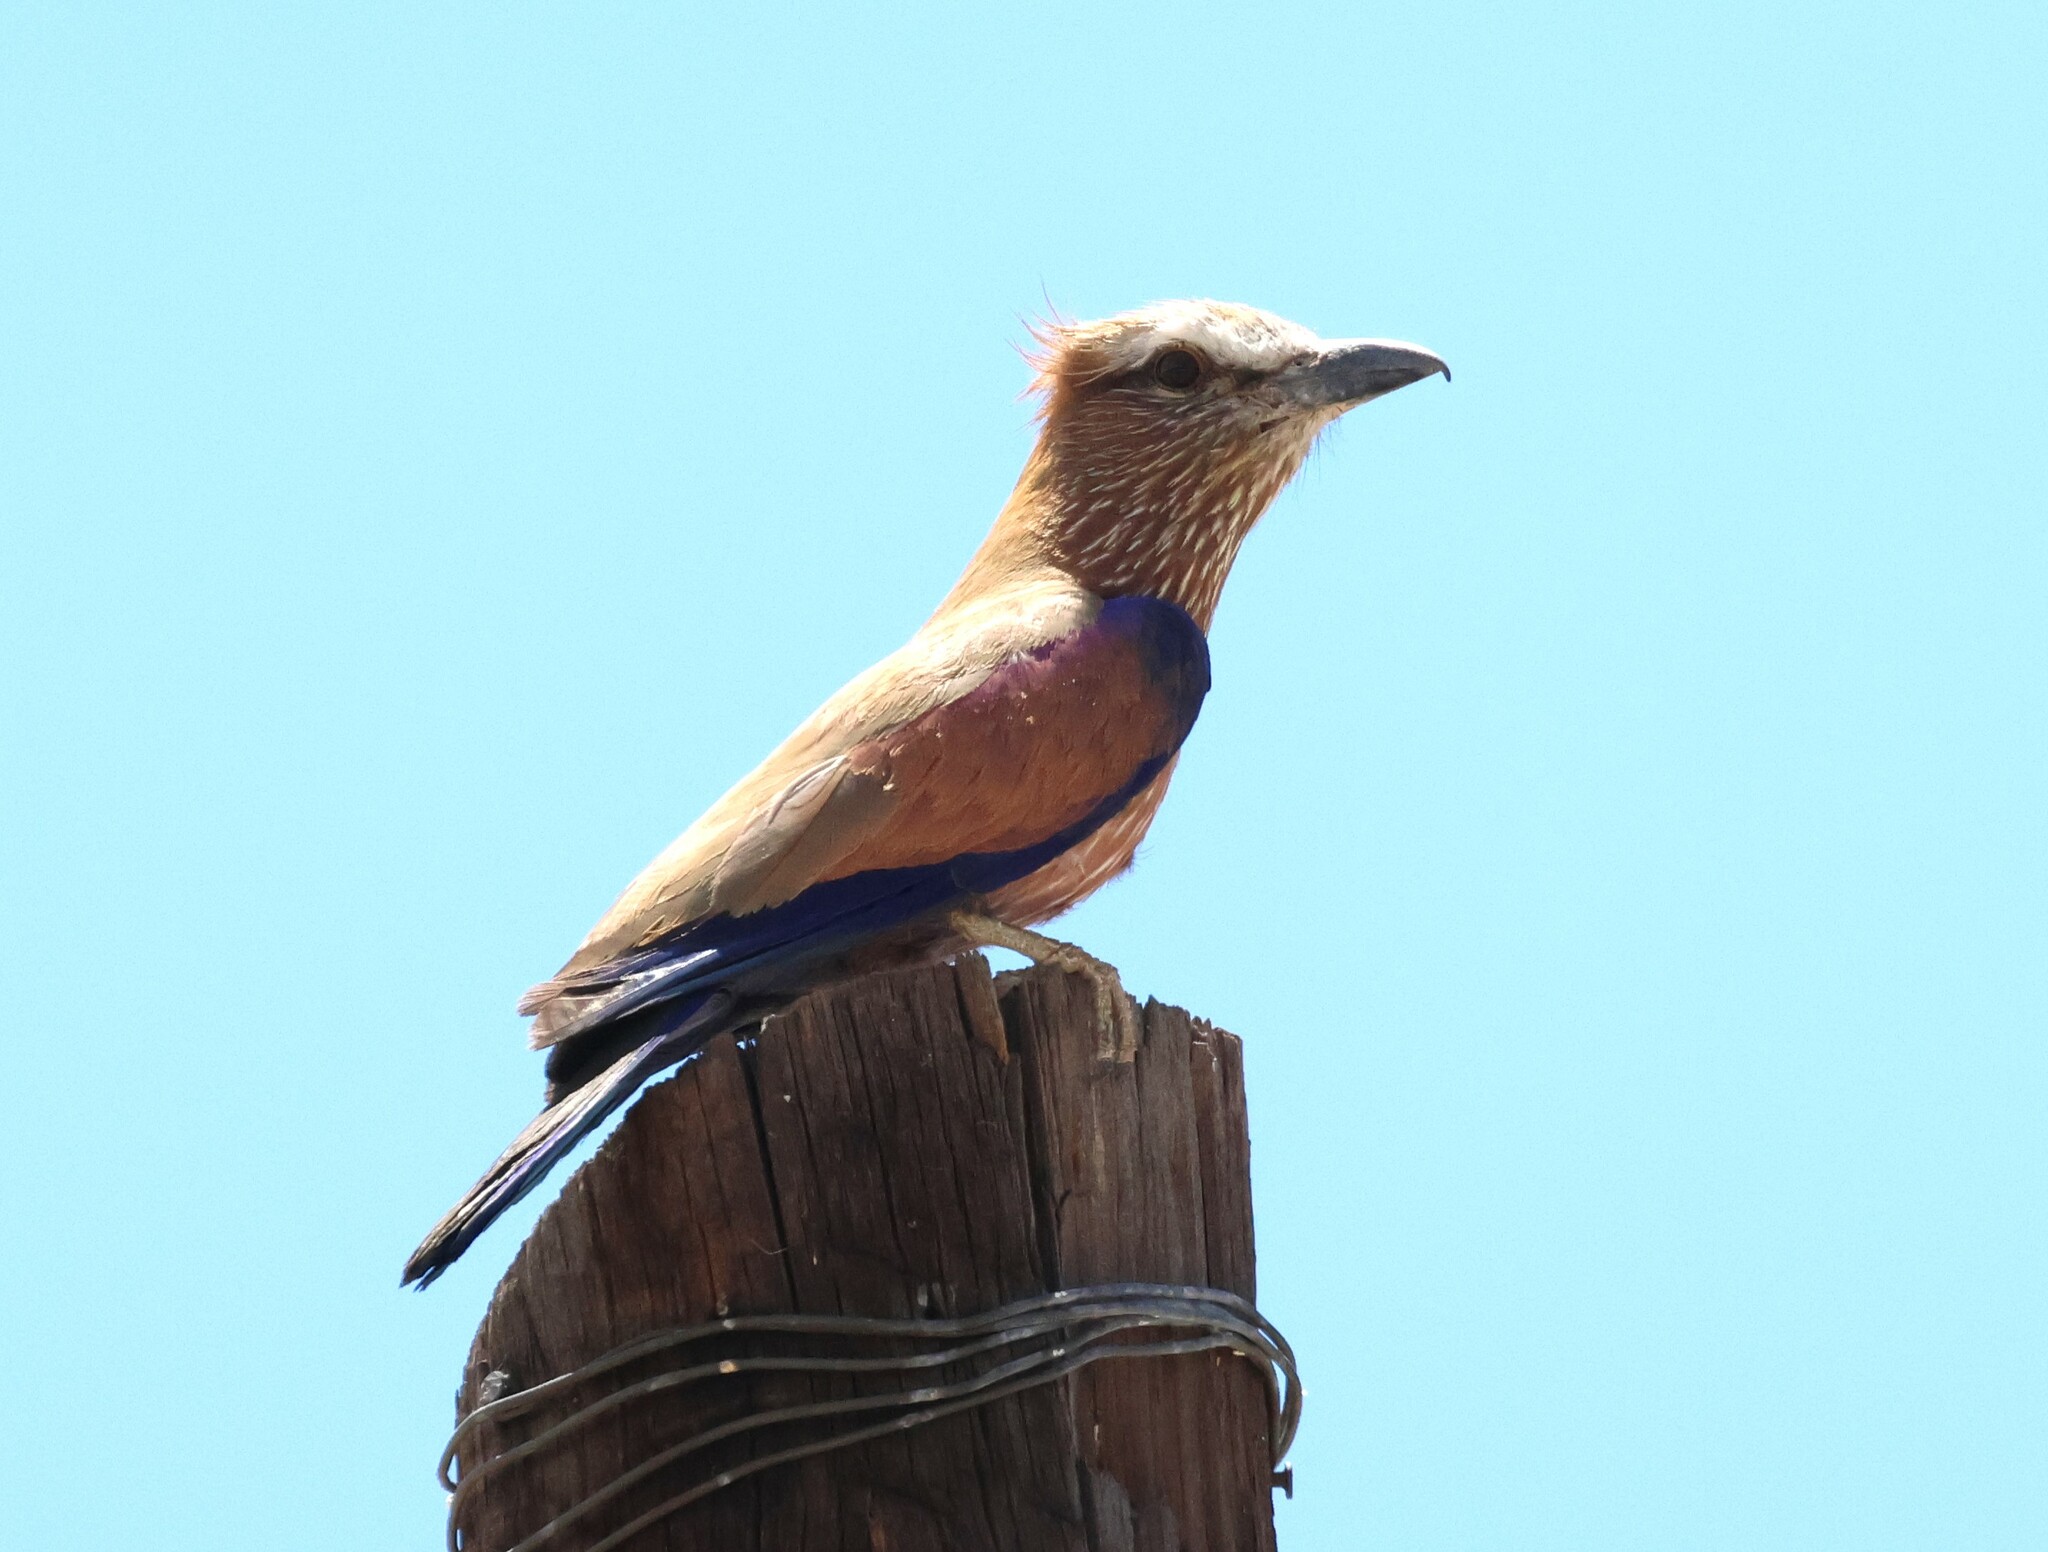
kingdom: Animalia
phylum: Chordata
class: Aves
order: Coraciiformes
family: Coraciidae
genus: Coracias
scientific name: Coracias naevius
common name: Purple roller
